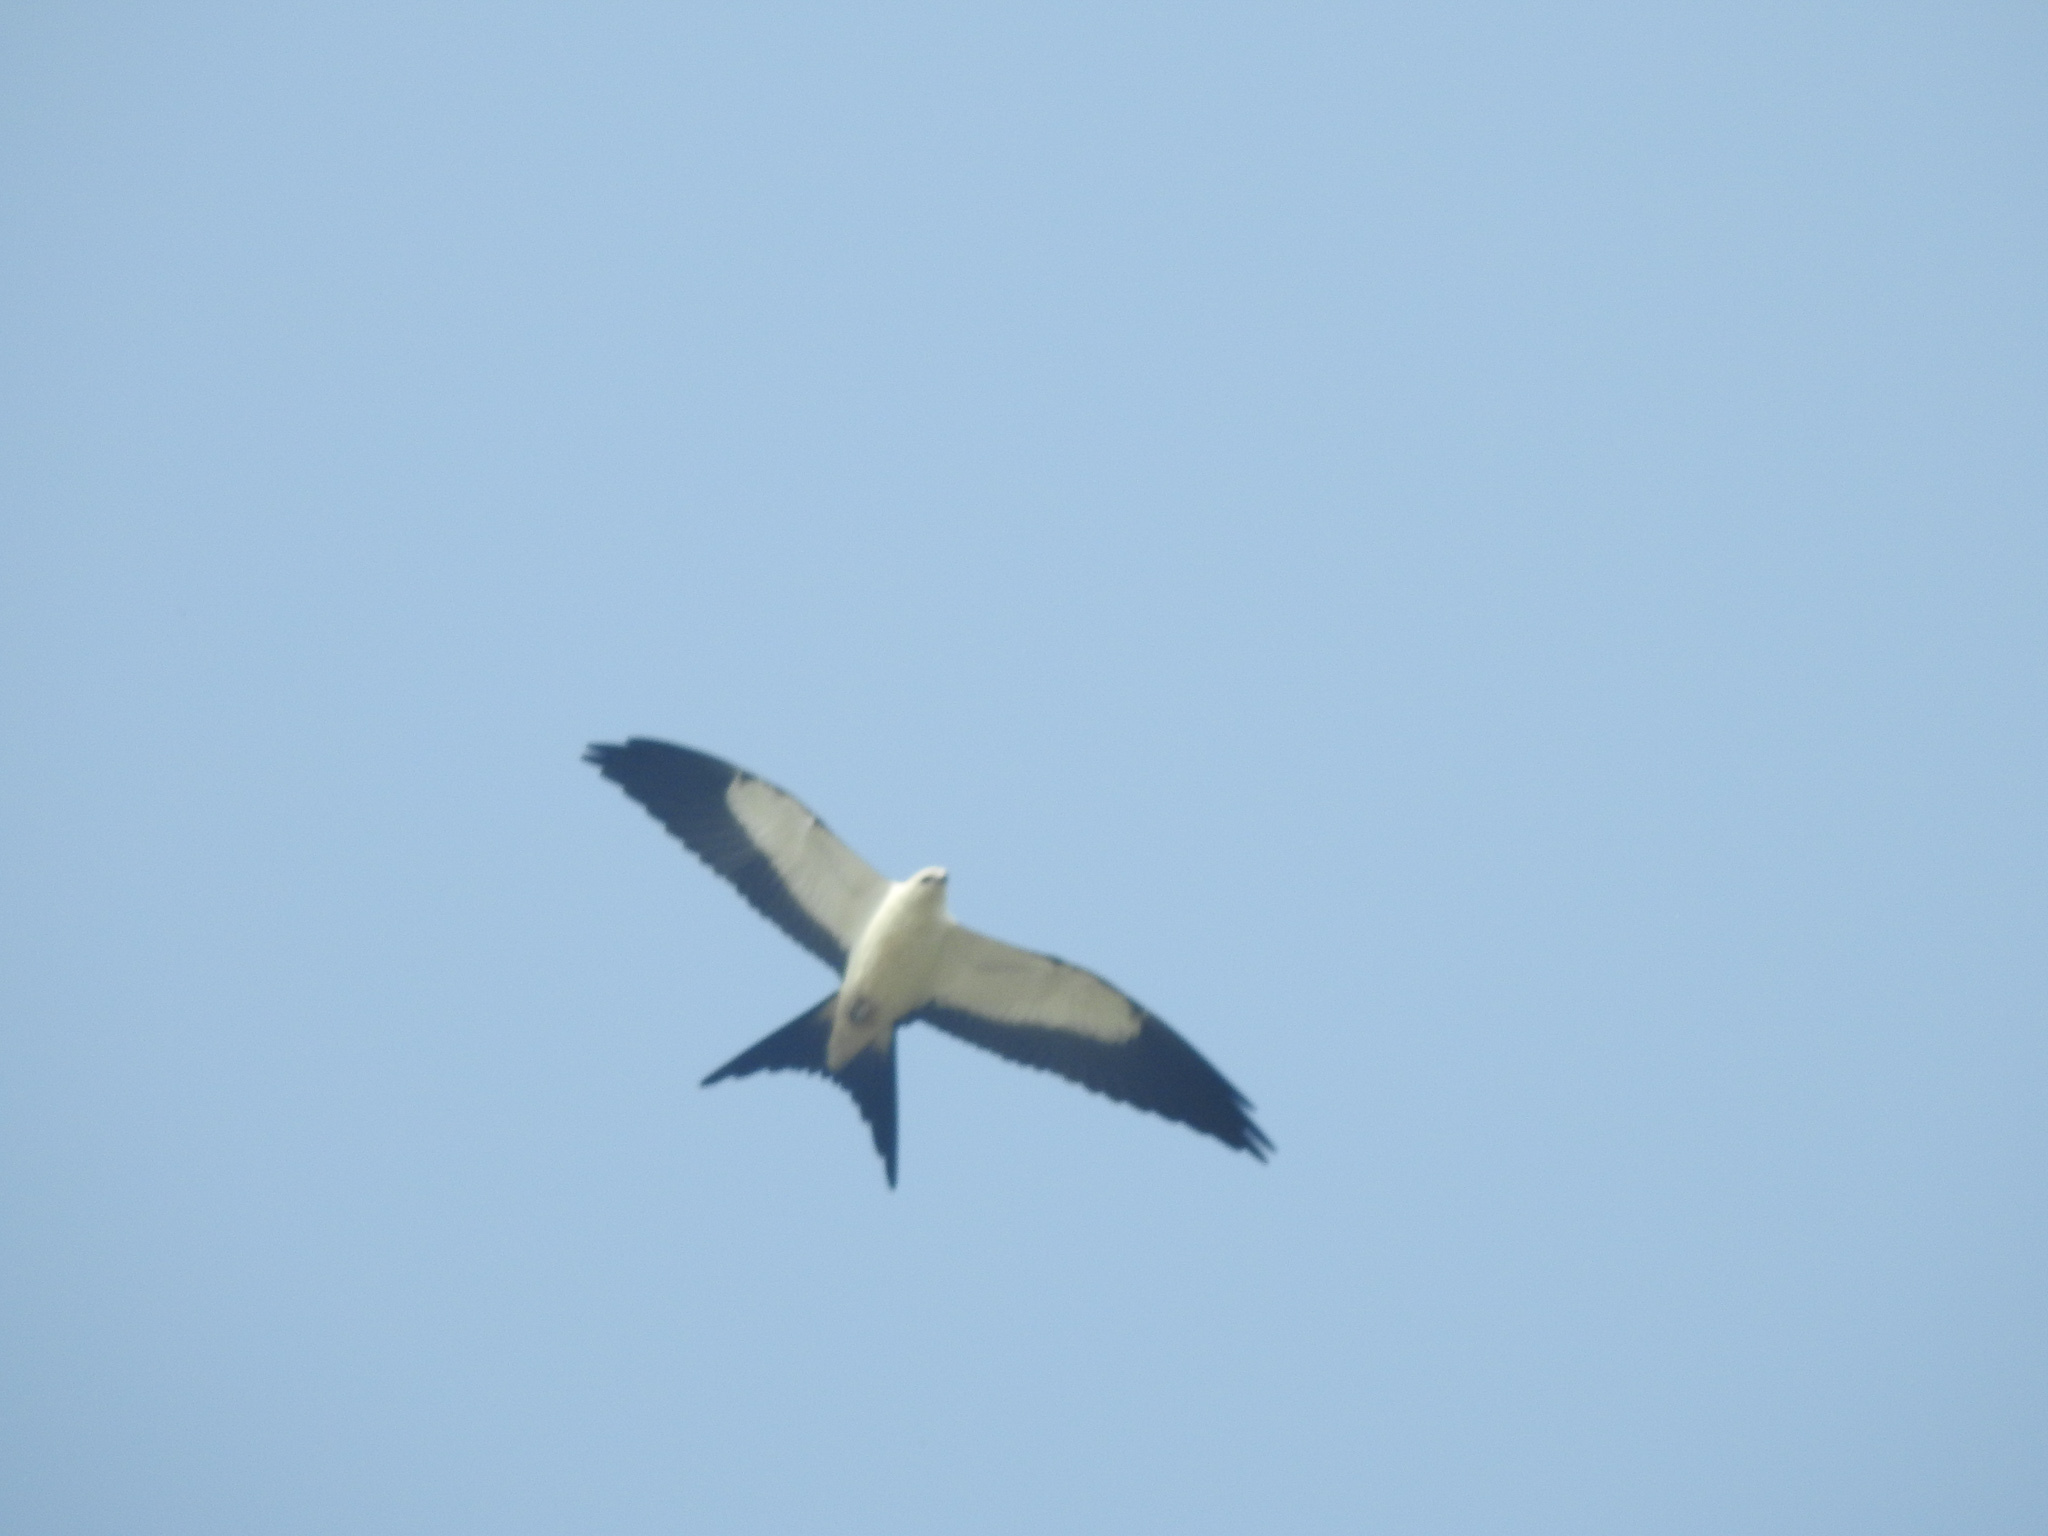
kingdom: Animalia
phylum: Chordata
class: Aves
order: Accipitriformes
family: Accipitridae
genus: Elanoides
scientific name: Elanoides forficatus
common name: Swallow-tailed kite
